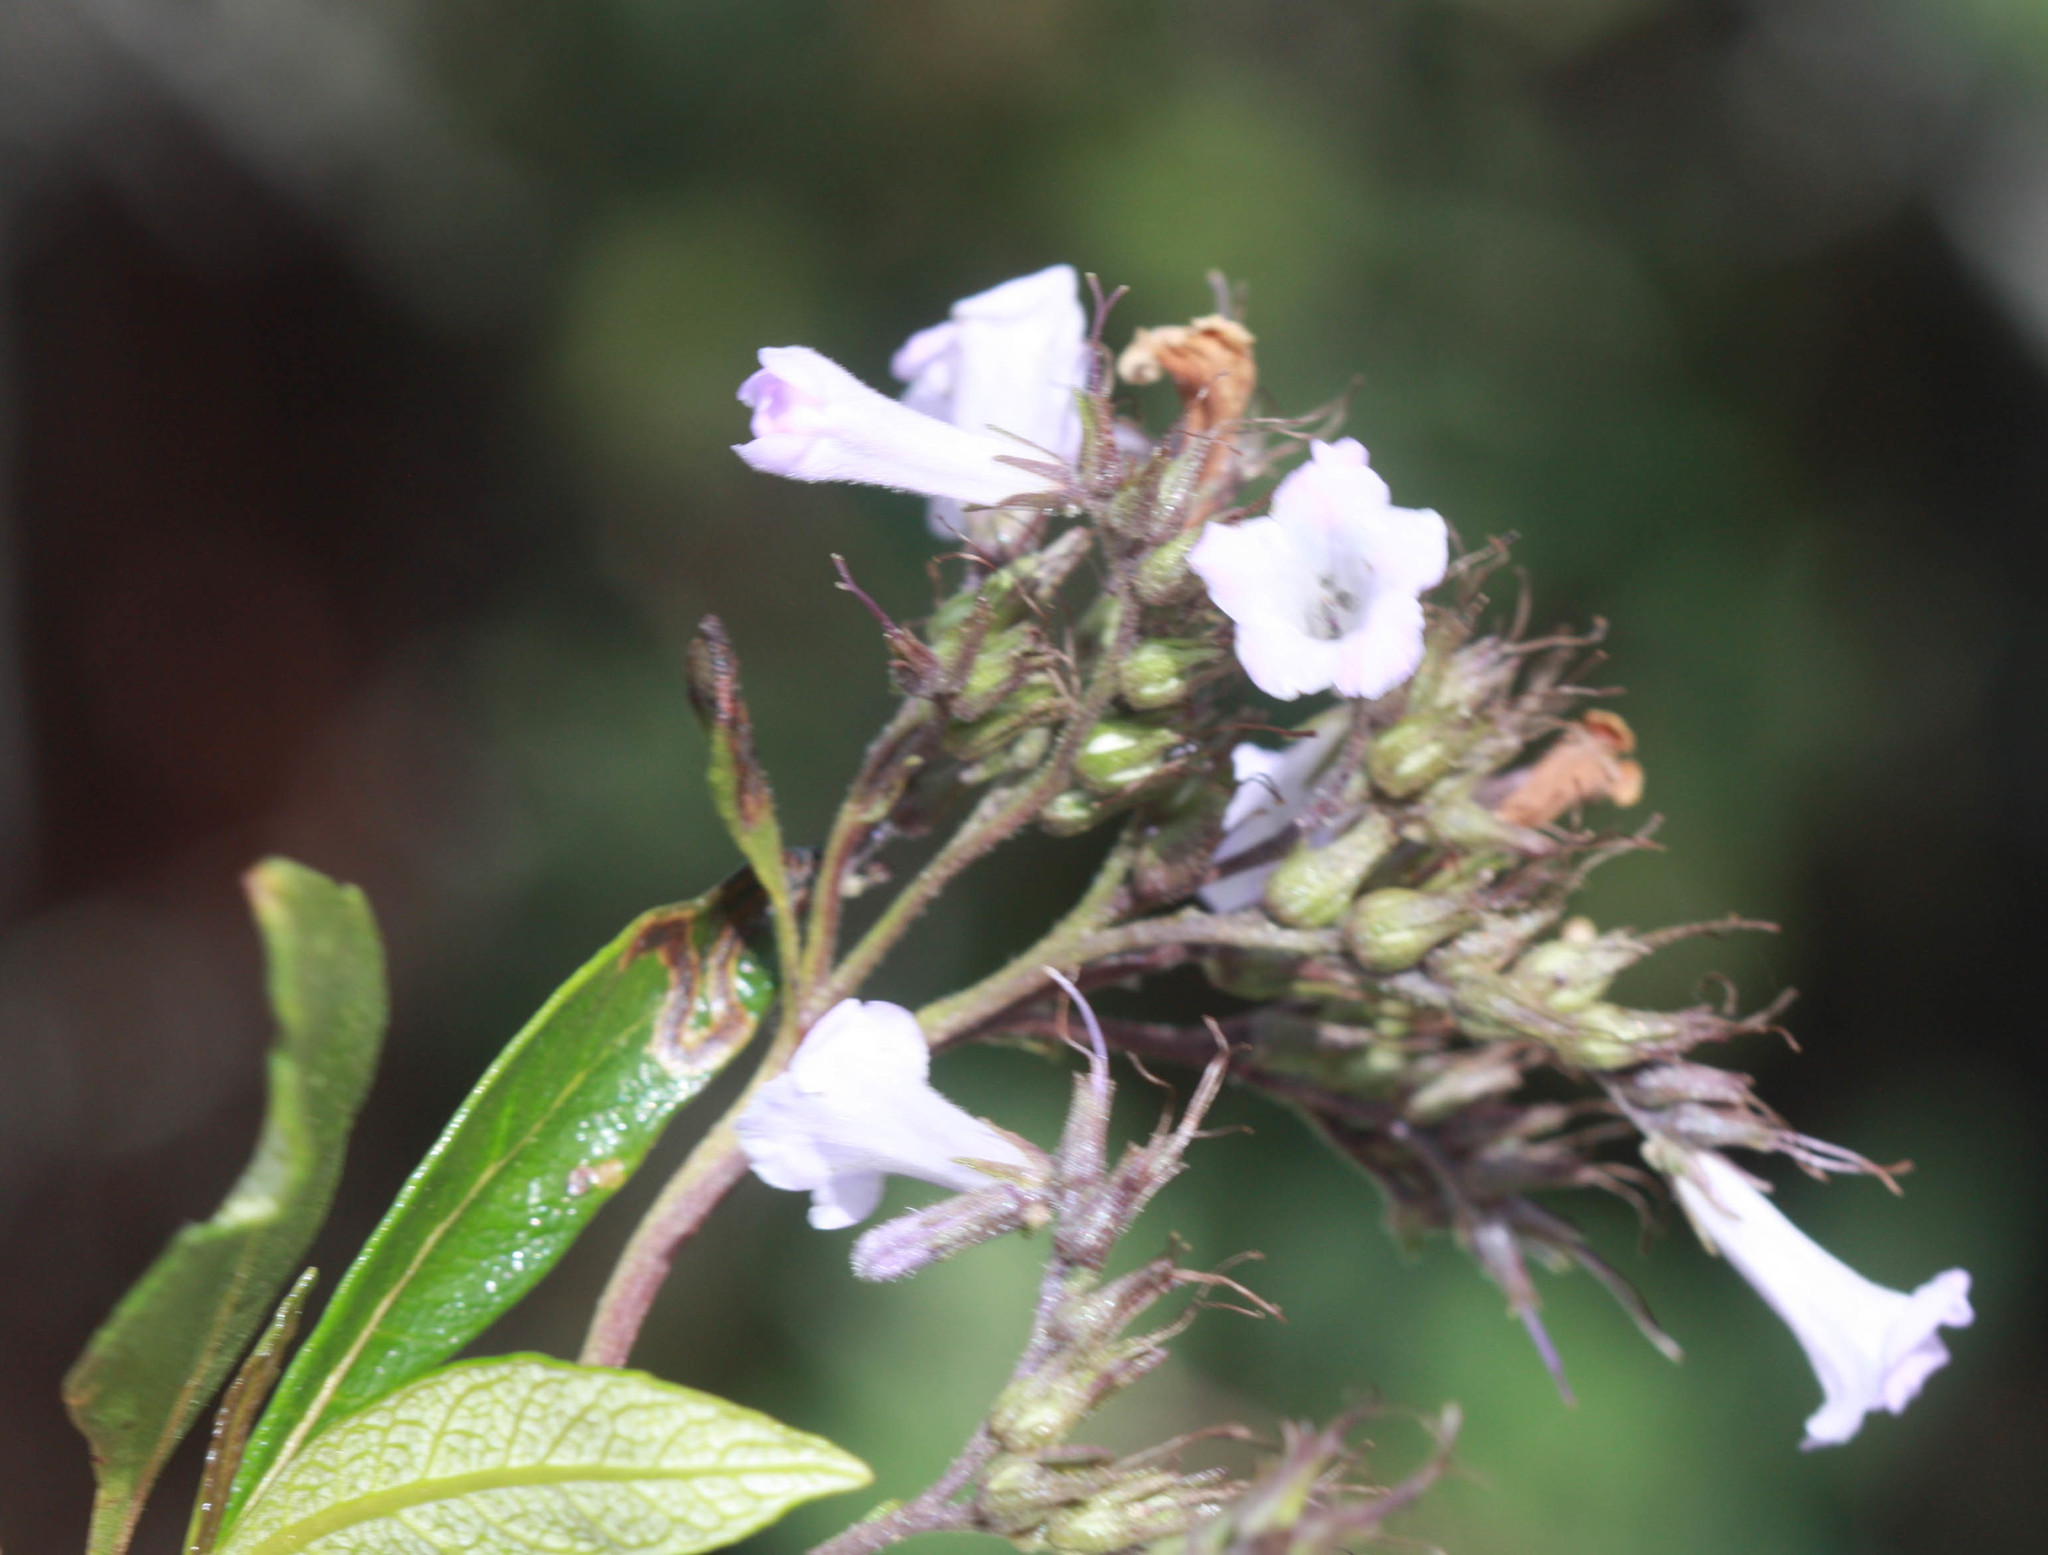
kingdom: Plantae
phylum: Tracheophyta
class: Magnoliopsida
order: Boraginales
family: Namaceae
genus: Eriodictyon
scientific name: Eriodictyon californicum
